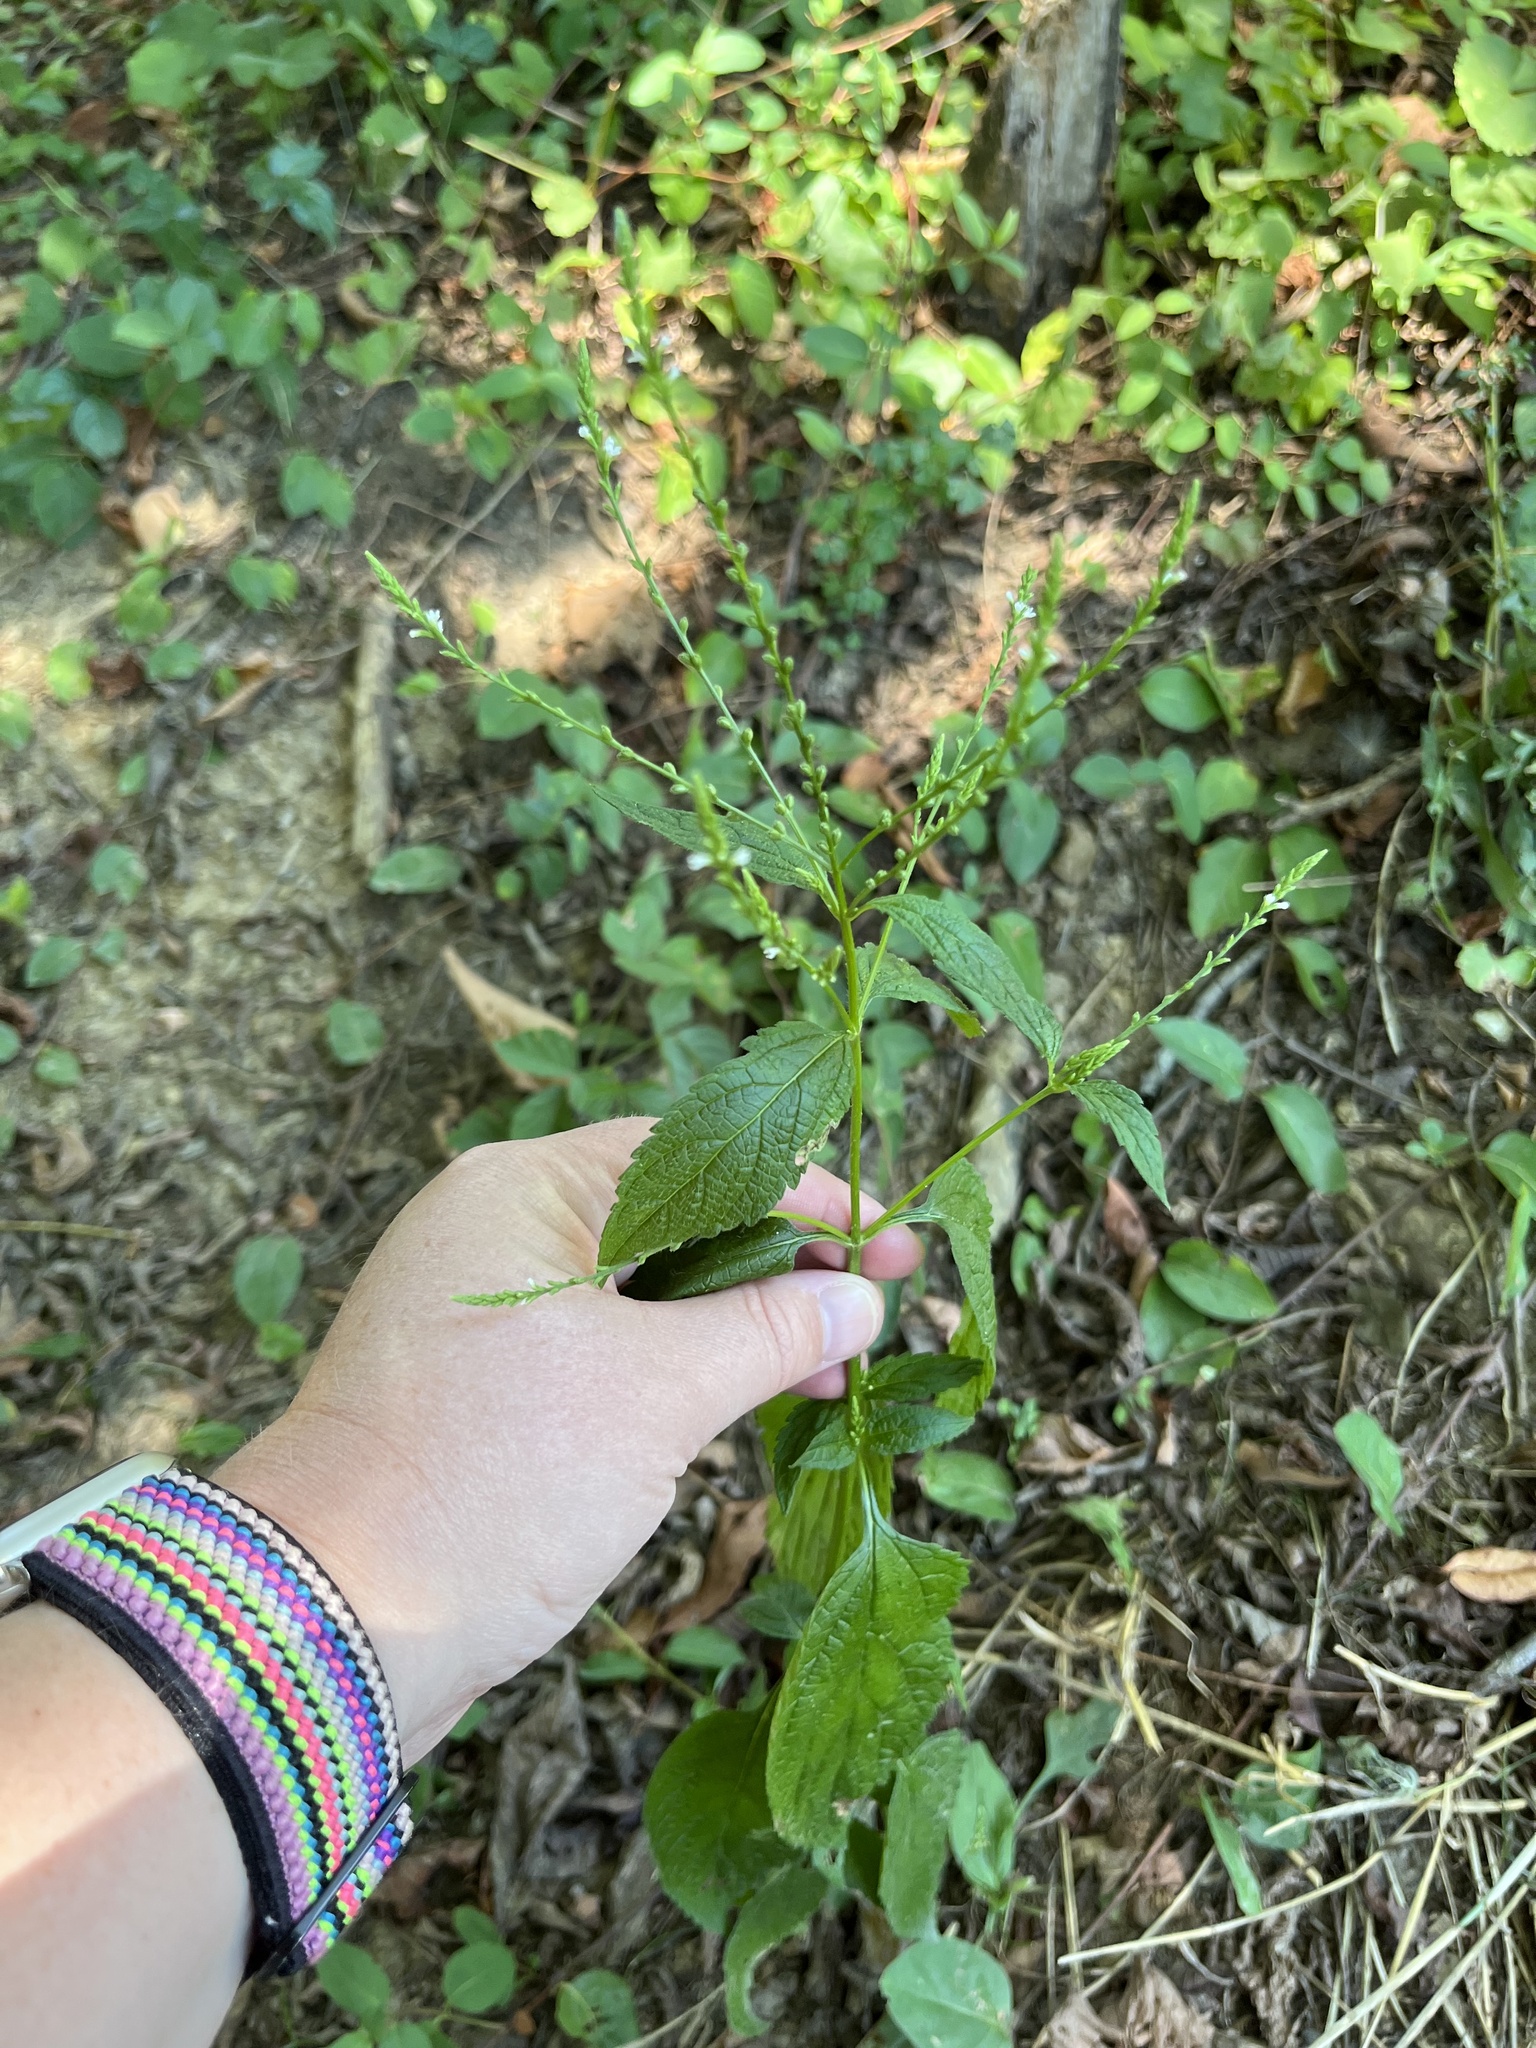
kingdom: Plantae
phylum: Tracheophyta
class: Magnoliopsida
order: Lamiales
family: Verbenaceae
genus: Verbena
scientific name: Verbena urticifolia
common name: Nettle-leaved vervain
